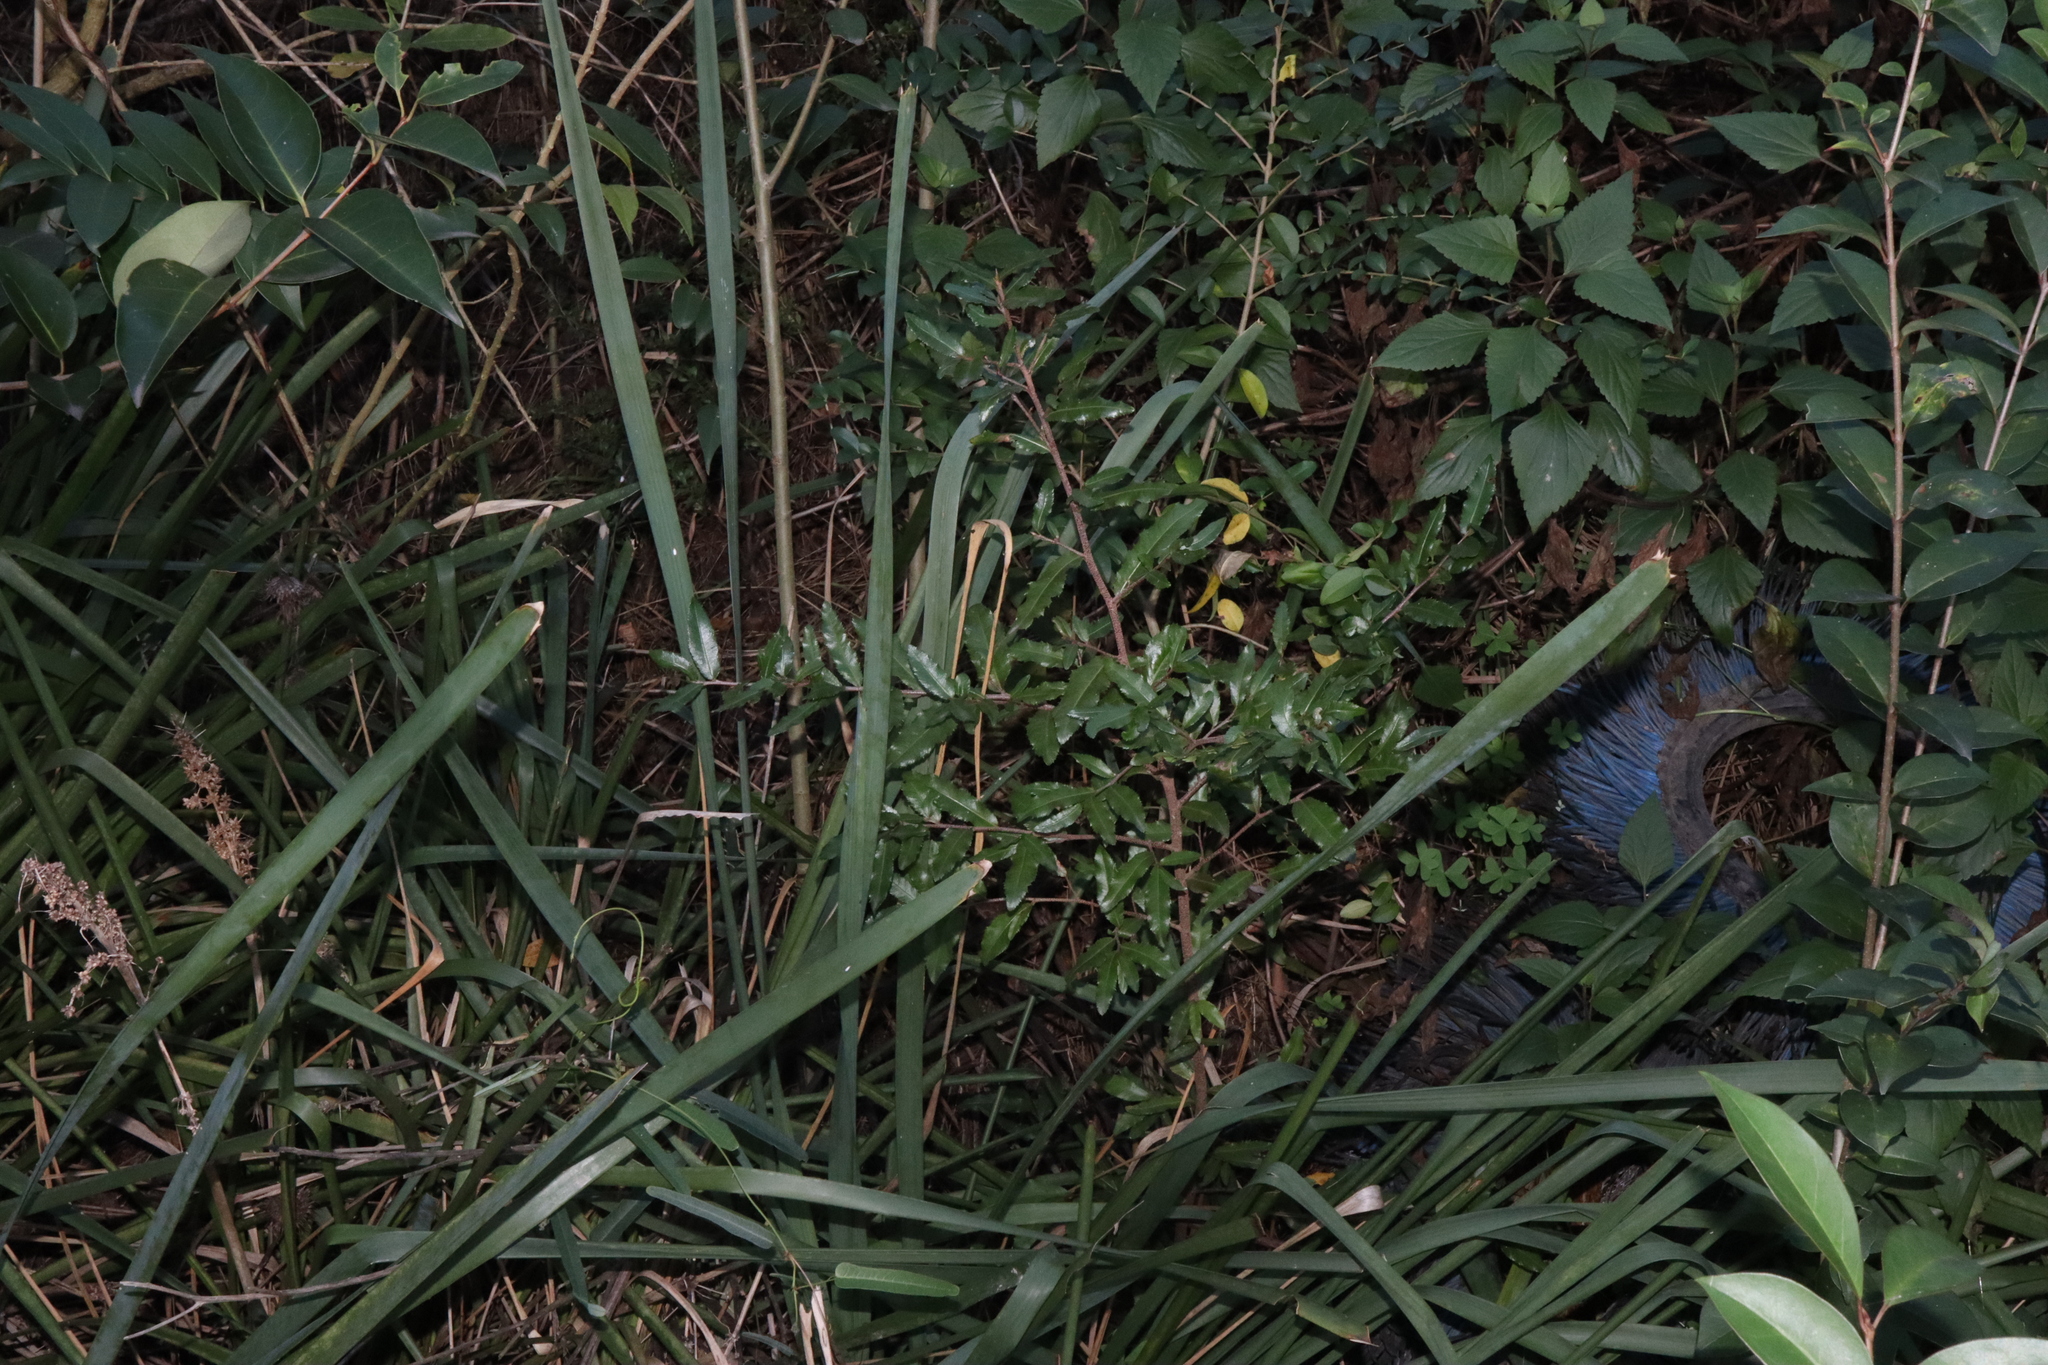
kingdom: Plantae
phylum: Tracheophyta
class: Magnoliopsida
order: Malpighiales
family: Ochnaceae
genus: Ochna
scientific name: Ochna serrulata
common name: Mickey mouse plant
